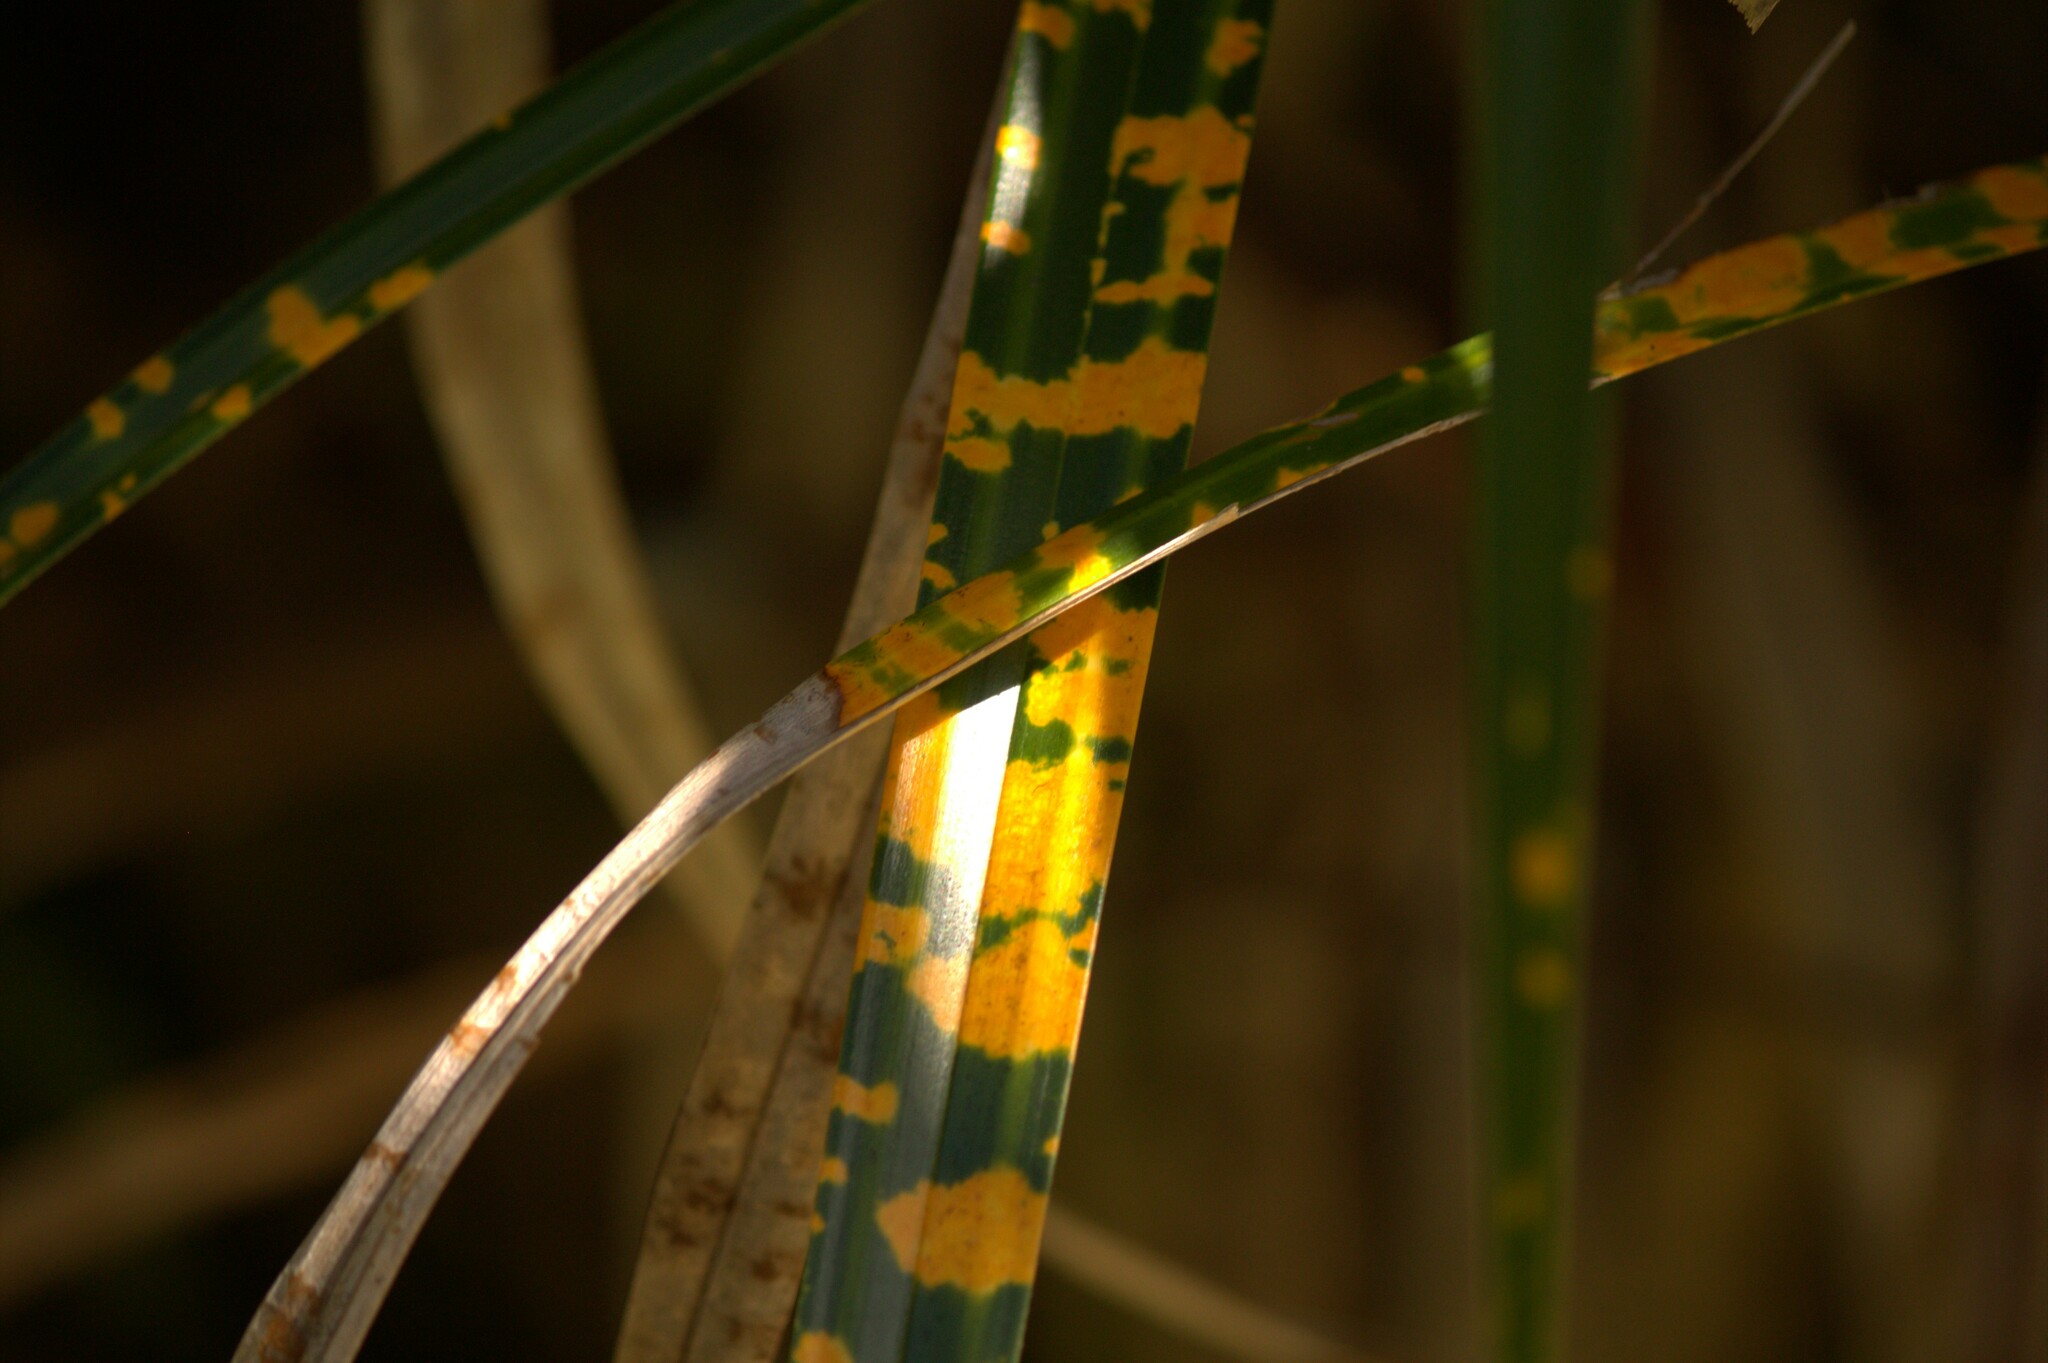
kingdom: Plantae
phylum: Tracheophyta
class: Liliopsida
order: Pandanales
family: Pandanaceae
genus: Freycinetia
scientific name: Freycinetia banksii
